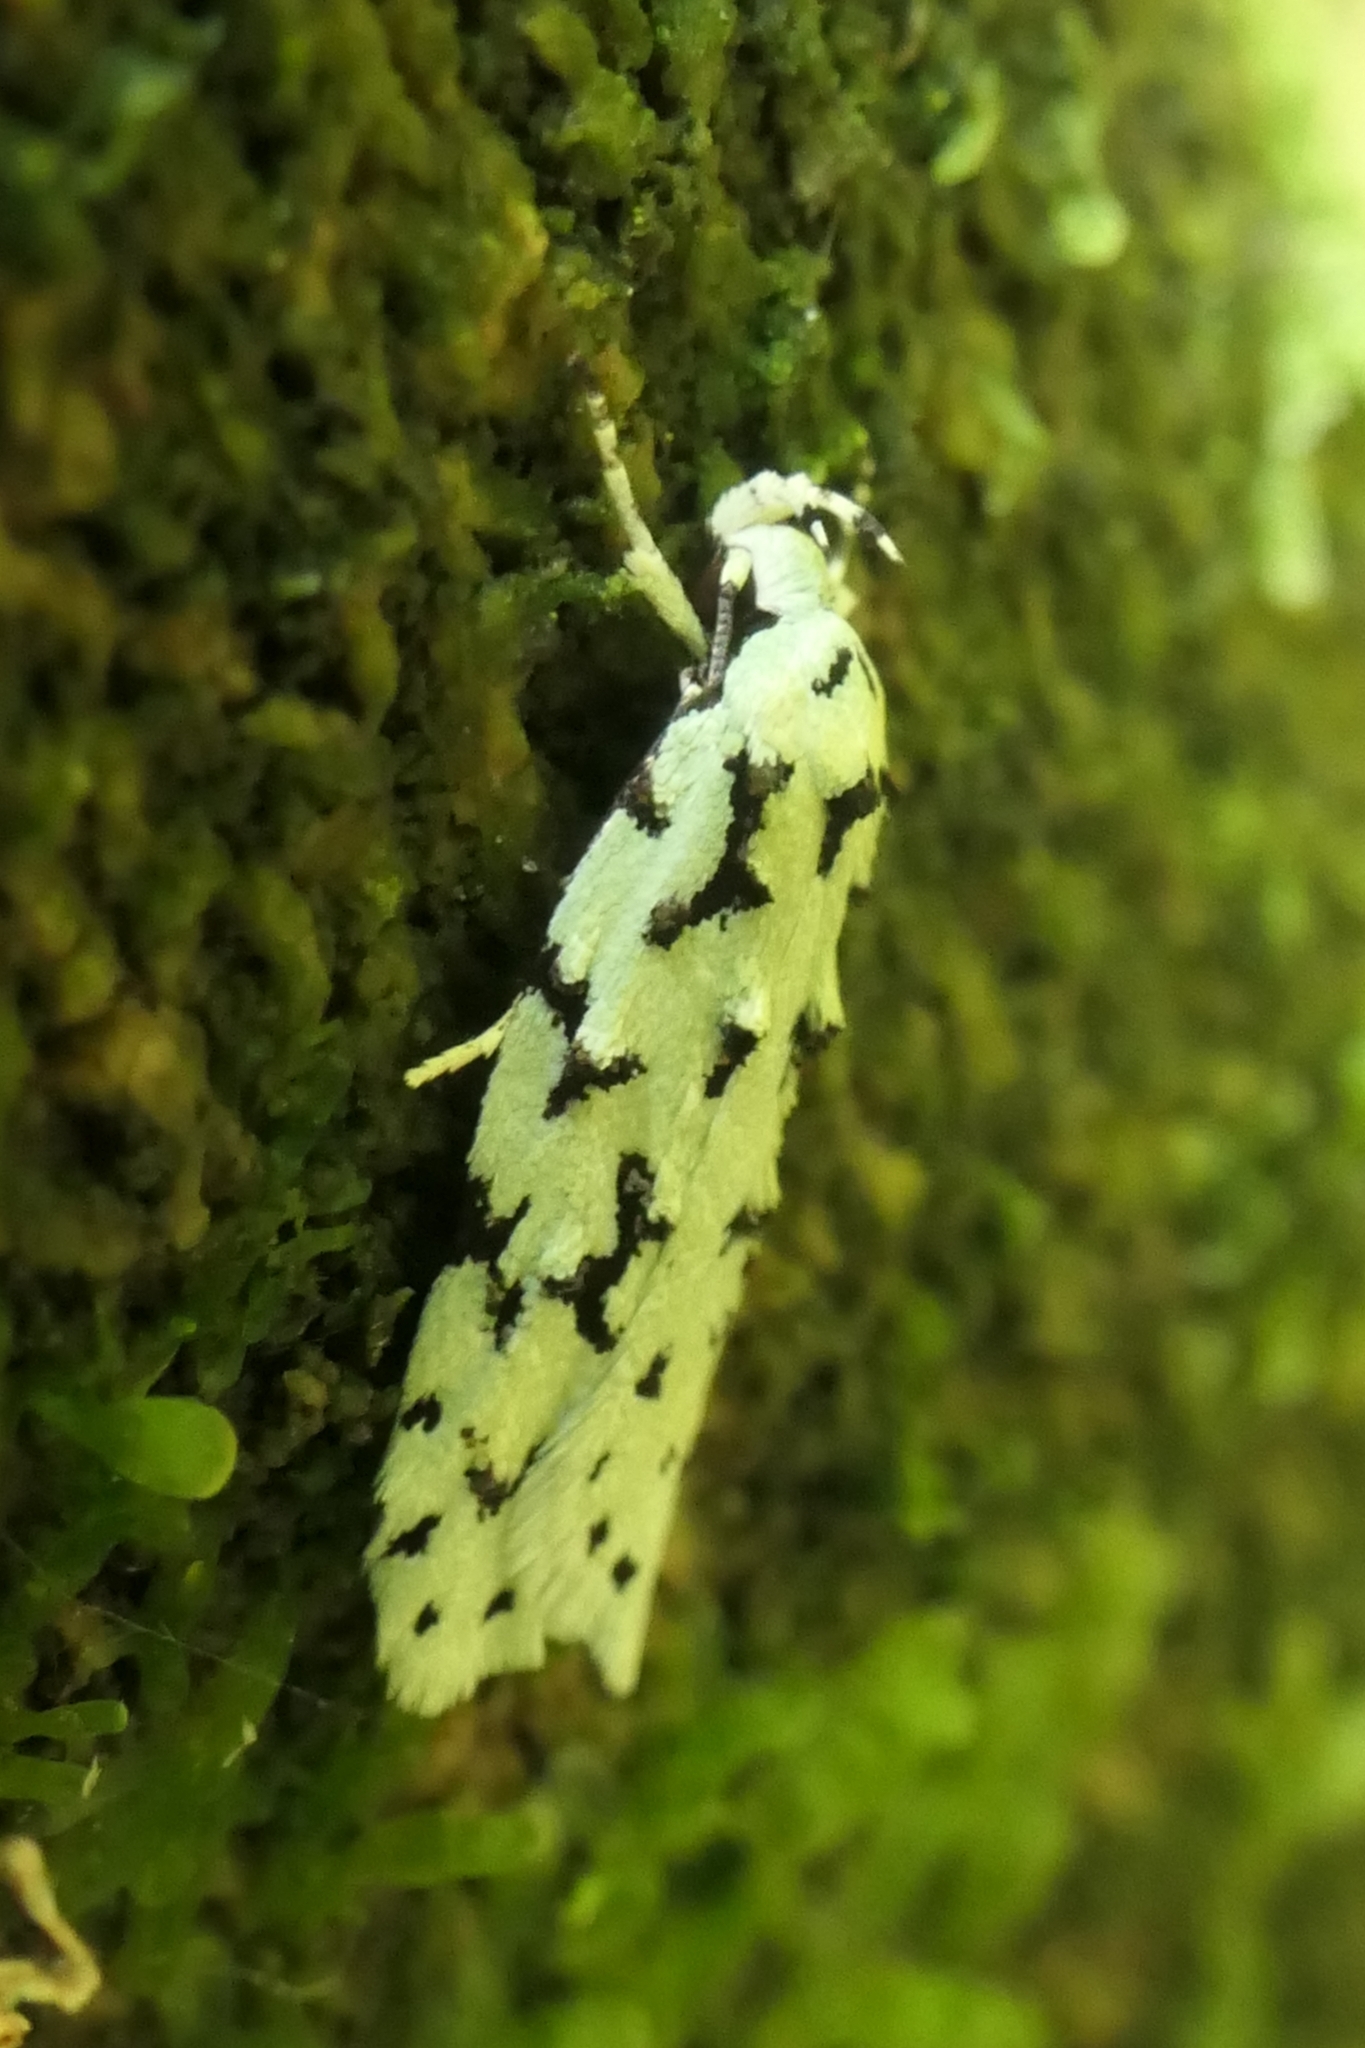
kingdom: Animalia
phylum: Arthropoda
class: Insecta
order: Lepidoptera
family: Oecophoridae
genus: Izatha
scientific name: Izatha huttoni
